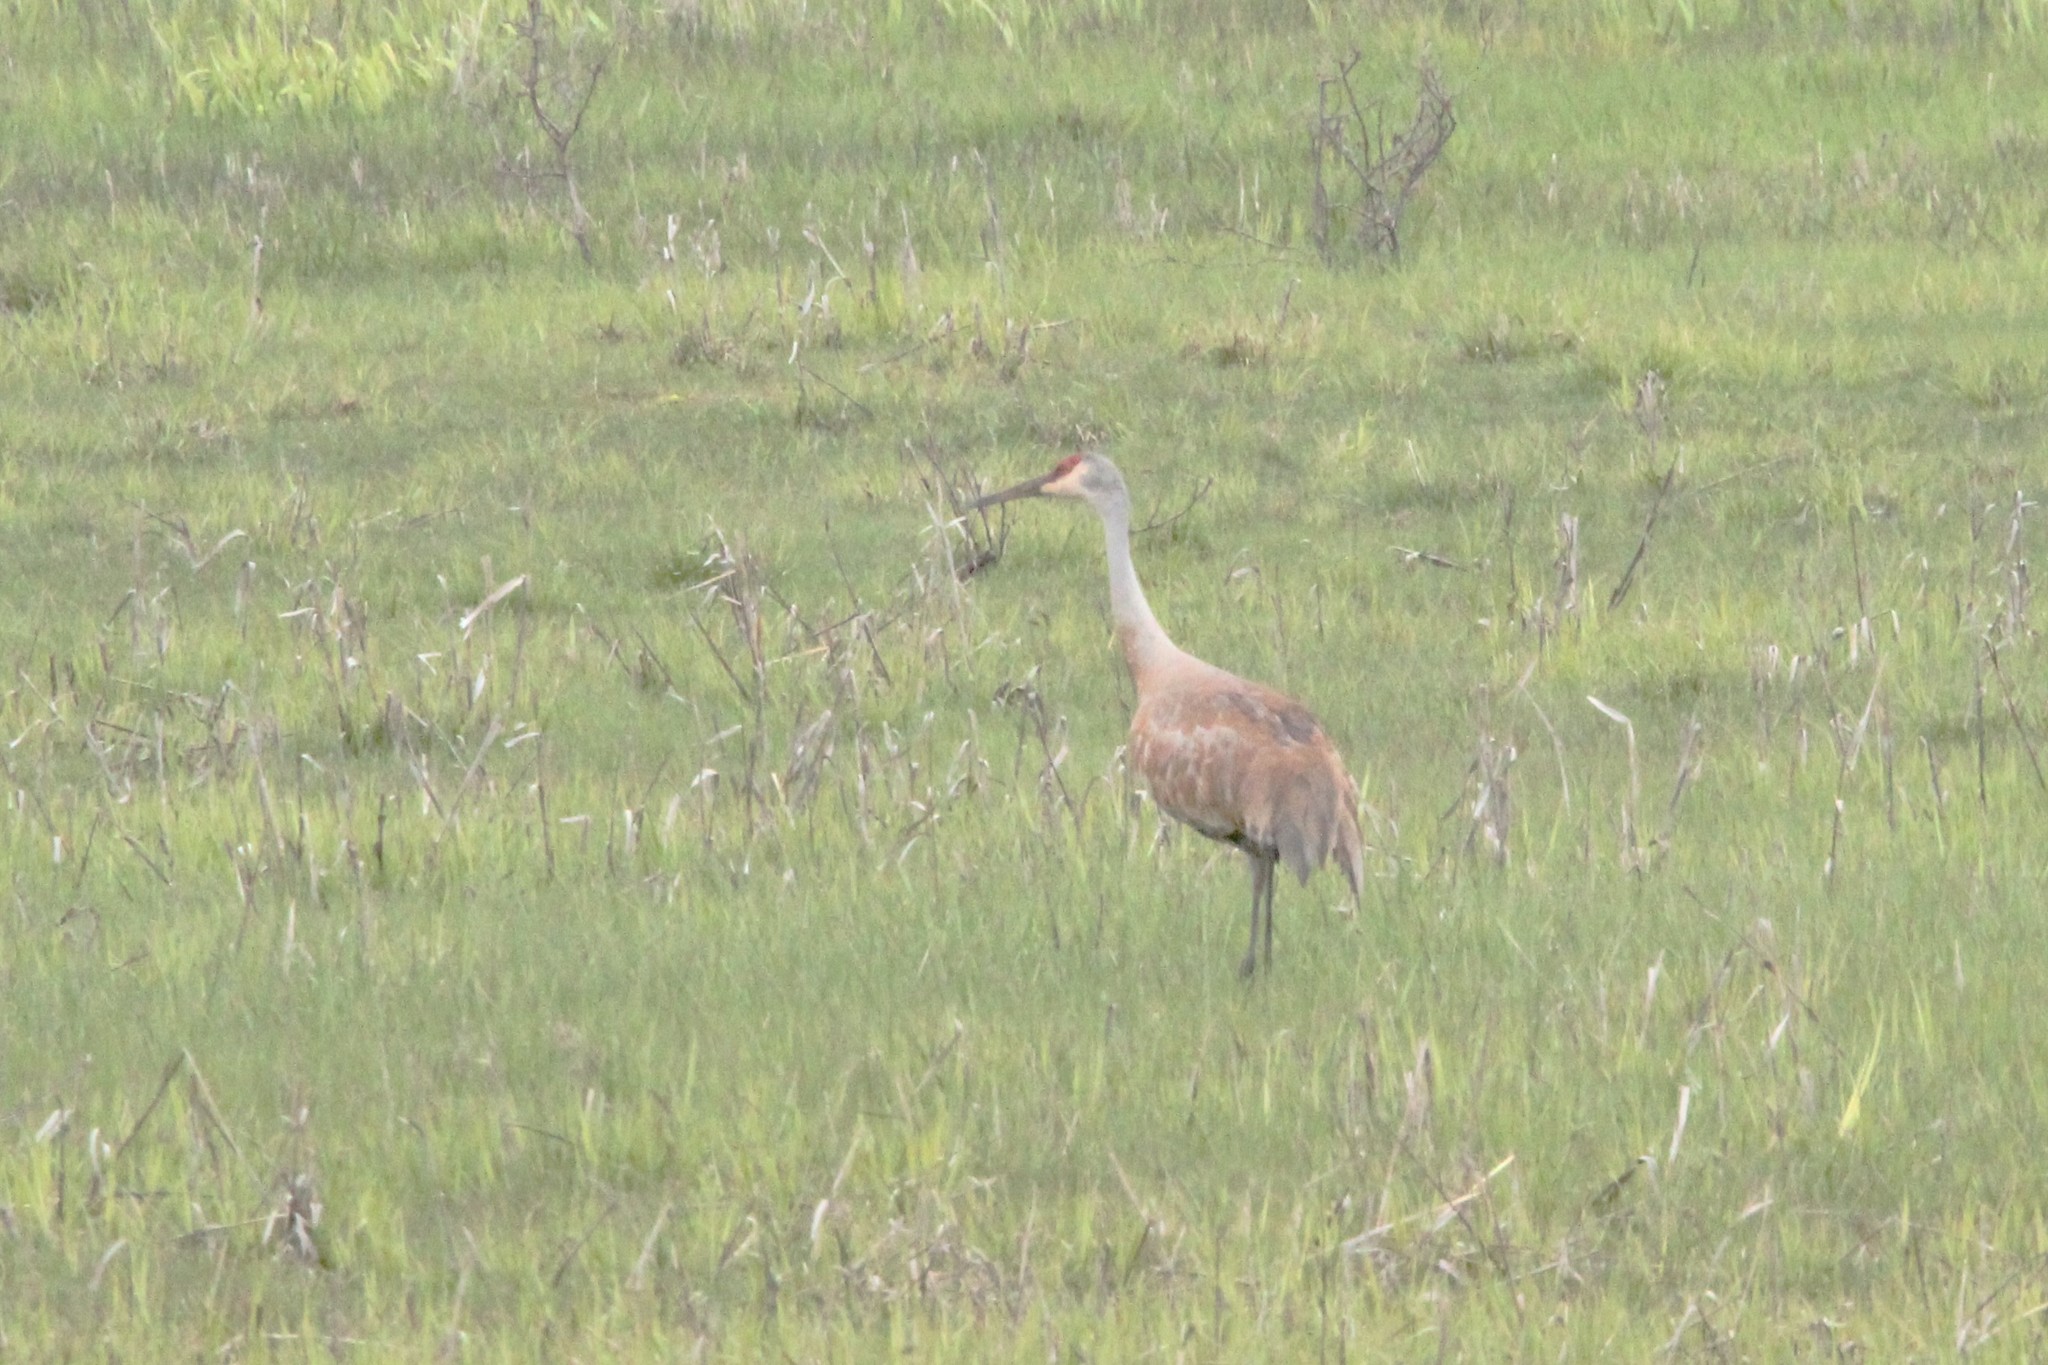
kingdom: Animalia
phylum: Chordata
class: Aves
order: Gruiformes
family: Gruidae
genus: Grus
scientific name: Grus canadensis
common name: Sandhill crane
